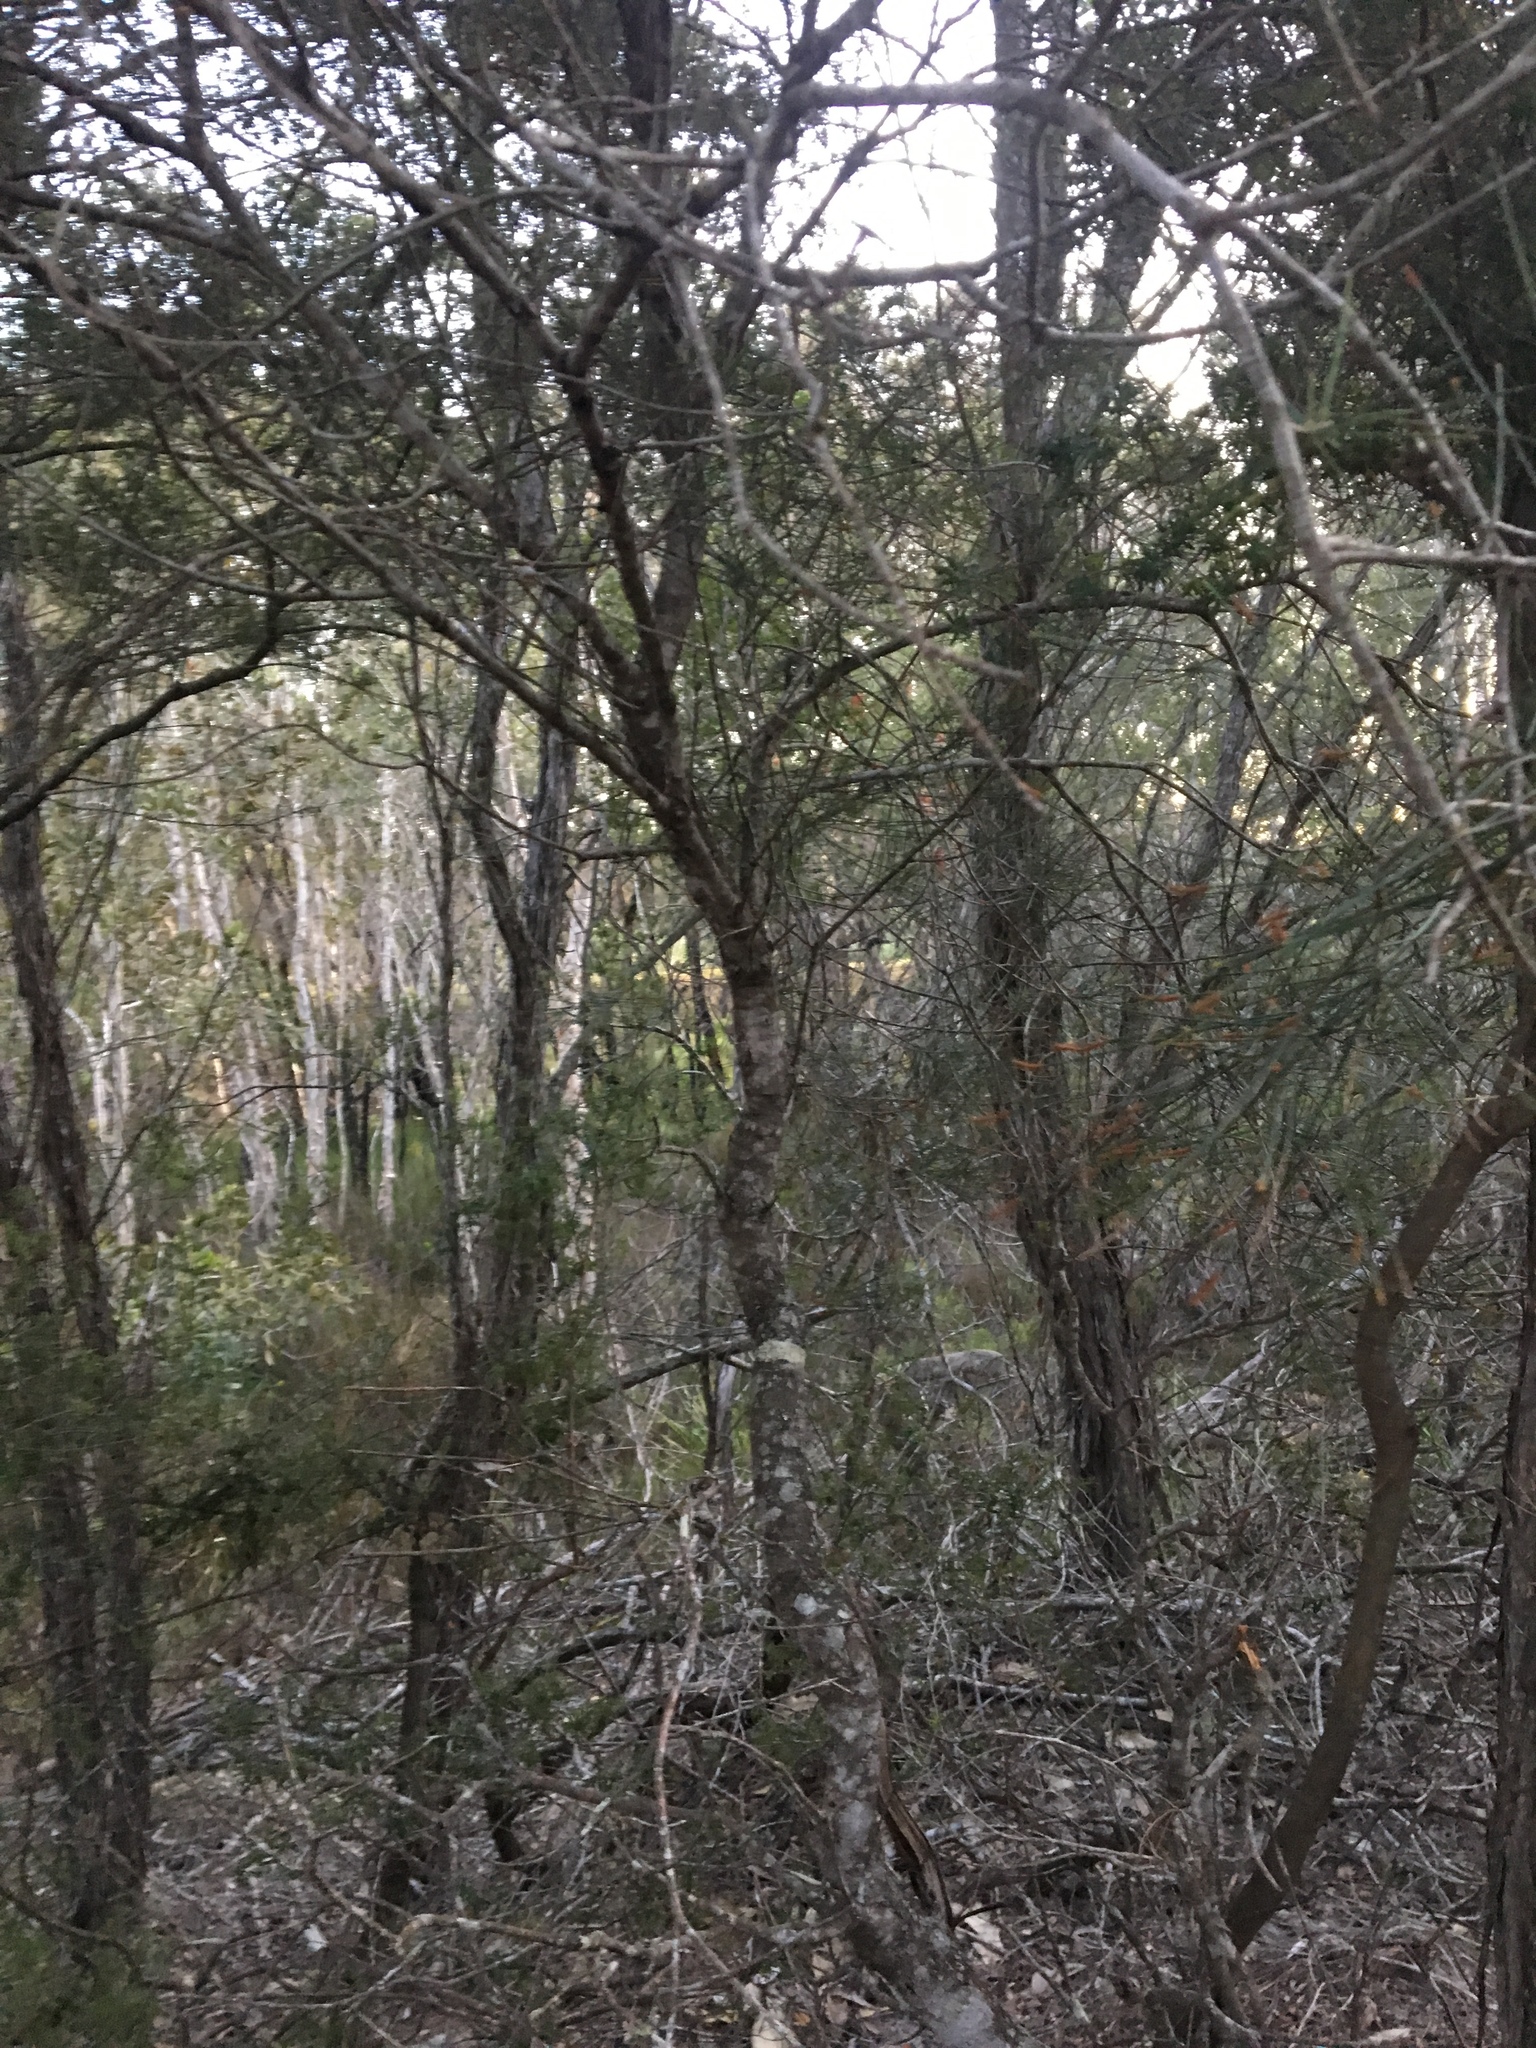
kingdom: Plantae
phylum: Tracheophyta
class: Magnoliopsida
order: Fagales
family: Casuarinaceae
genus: Casuarina
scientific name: Casuarina equisetifolia
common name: Beach sheoak
